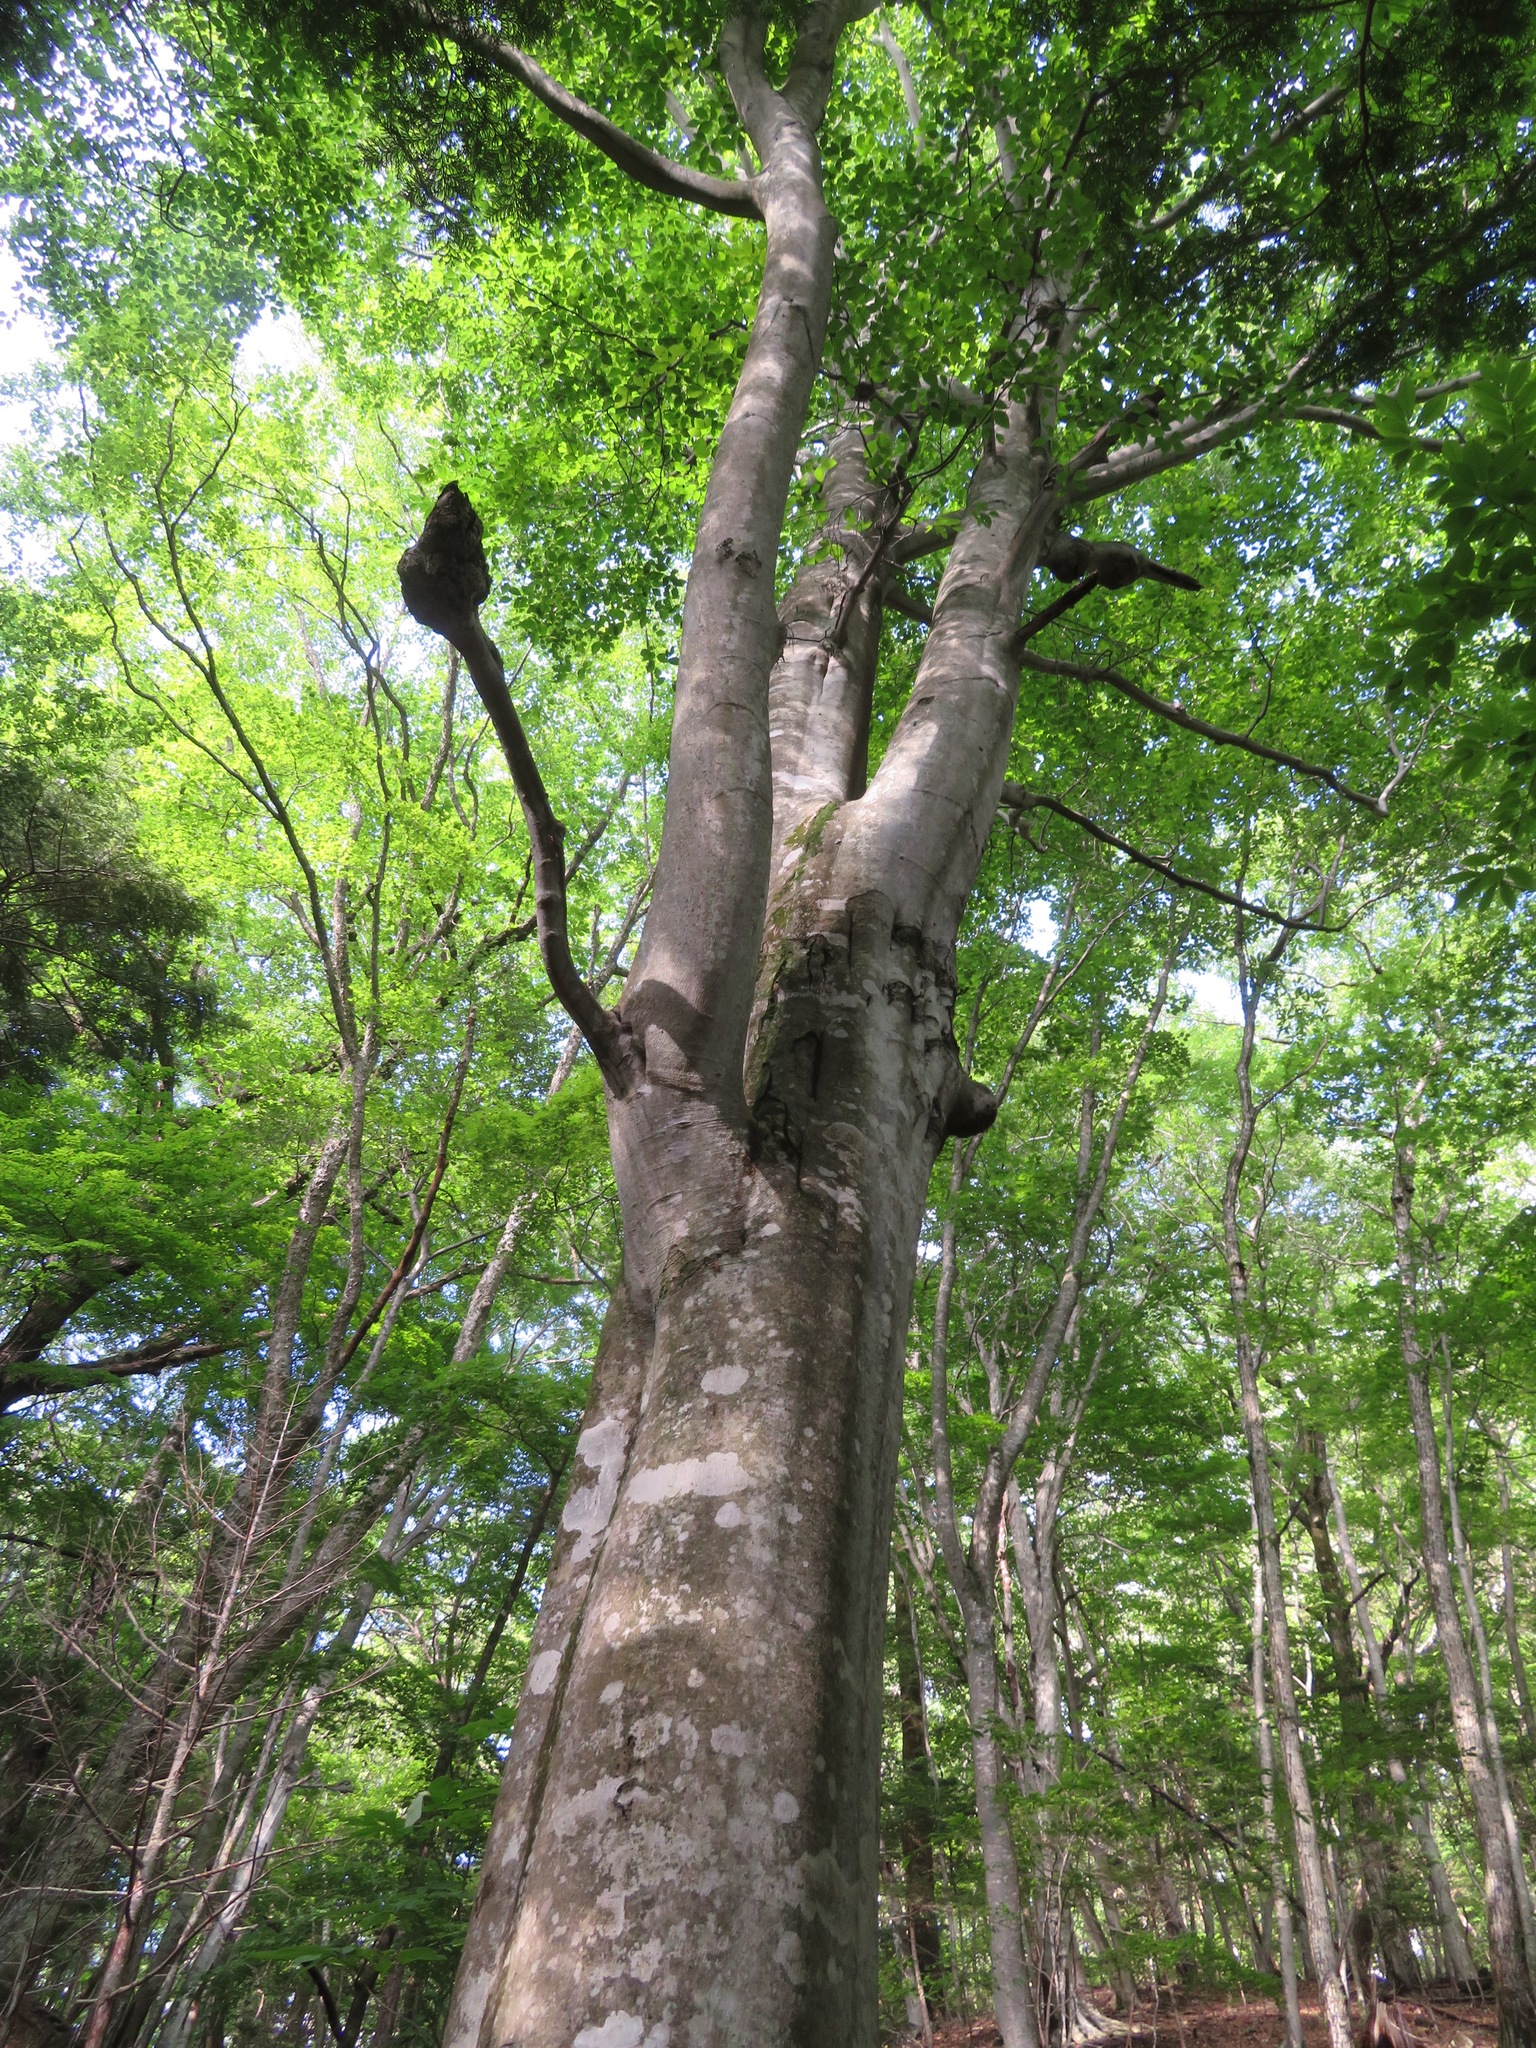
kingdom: Plantae
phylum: Tracheophyta
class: Magnoliopsida
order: Fagales
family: Fagaceae
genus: Fagus
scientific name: Fagus crenata
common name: Japanese beech
